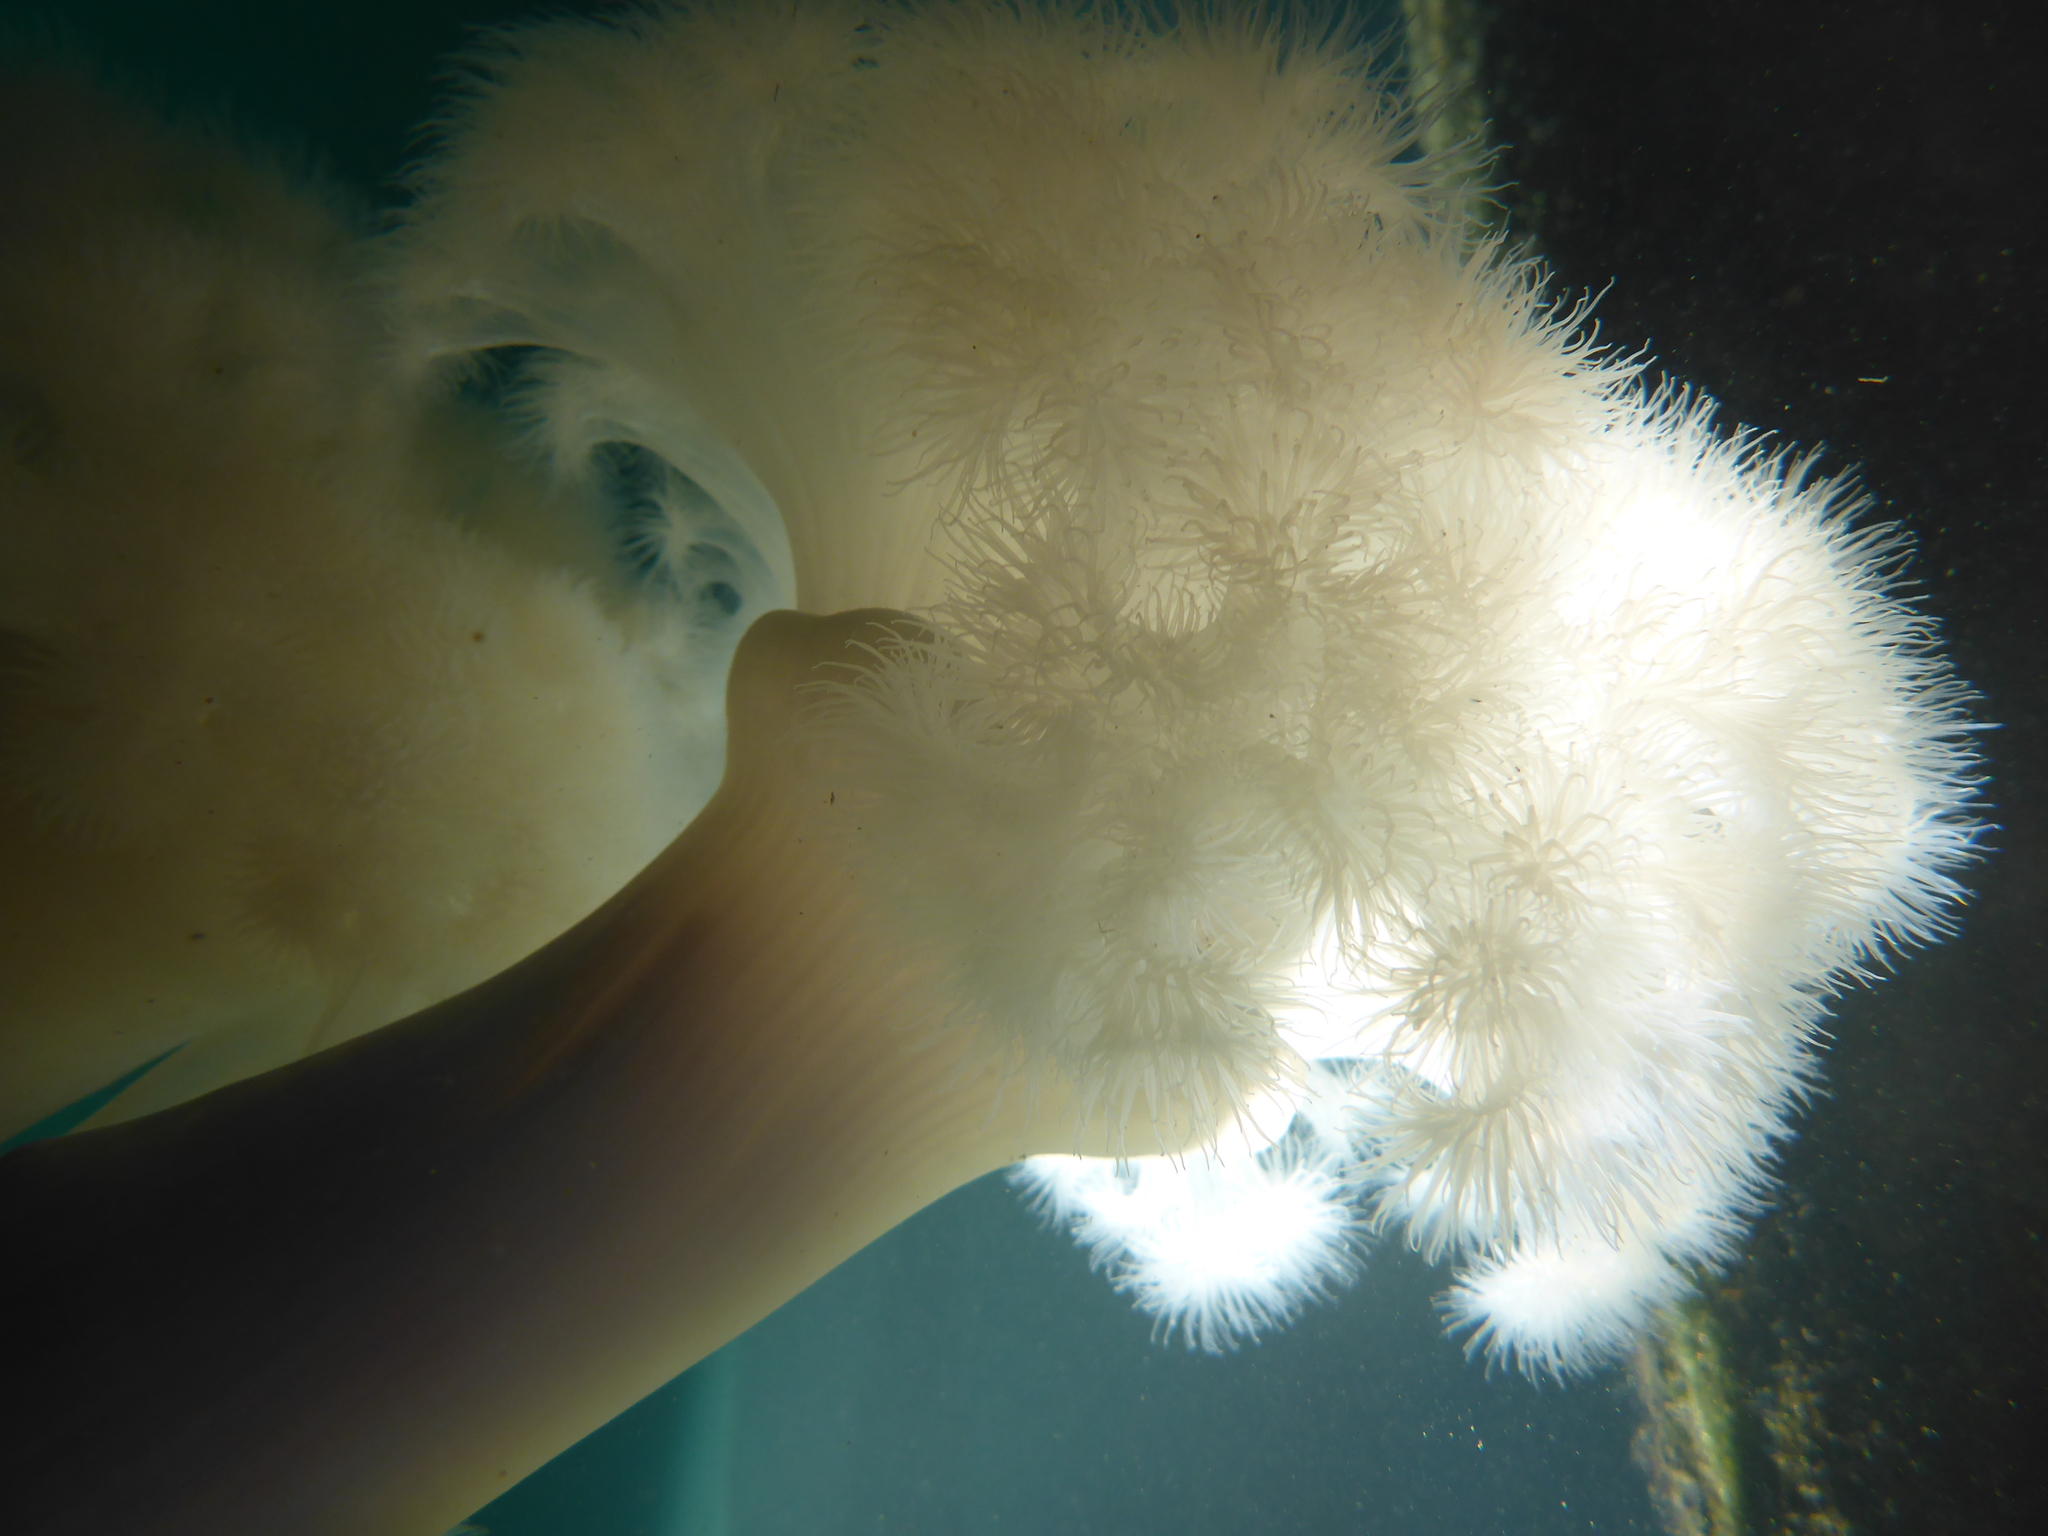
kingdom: Animalia
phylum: Cnidaria
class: Anthozoa
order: Actiniaria
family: Metridiidae
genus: Metridium
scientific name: Metridium farcimen
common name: Gigantic anemone
